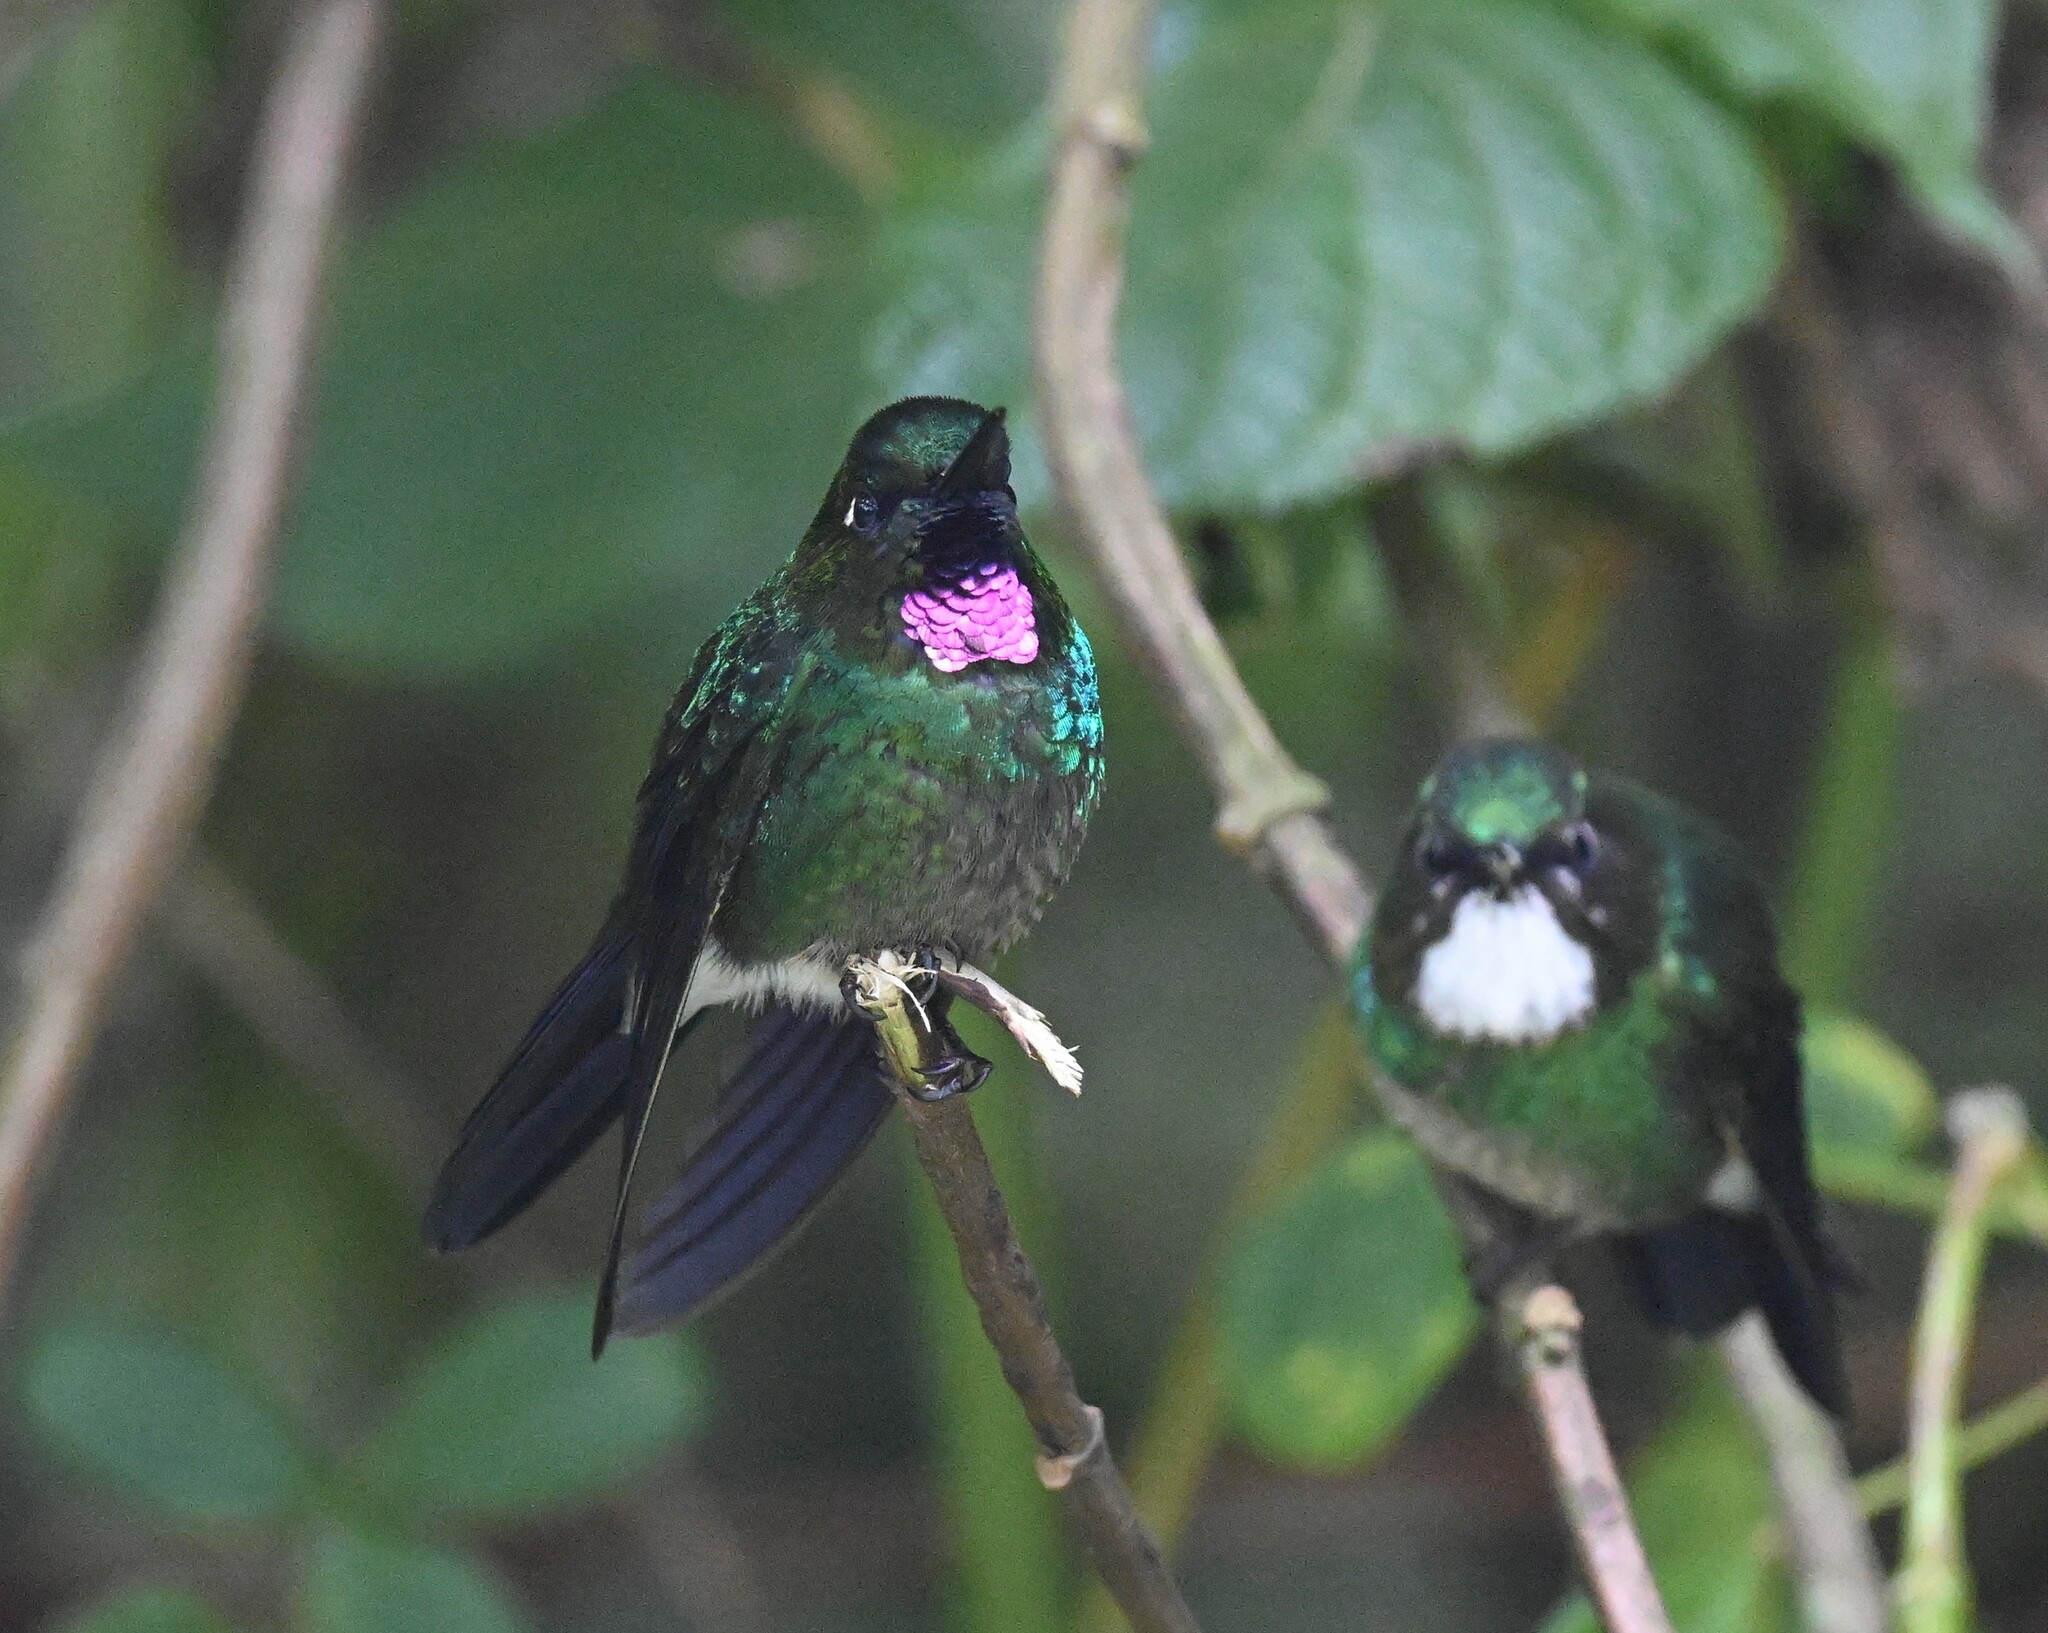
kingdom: Animalia
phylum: Chordata
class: Aves
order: Apodiformes
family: Trochilidae
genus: Heliangelus
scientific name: Heliangelus exortis
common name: Tourmaline sunangel
